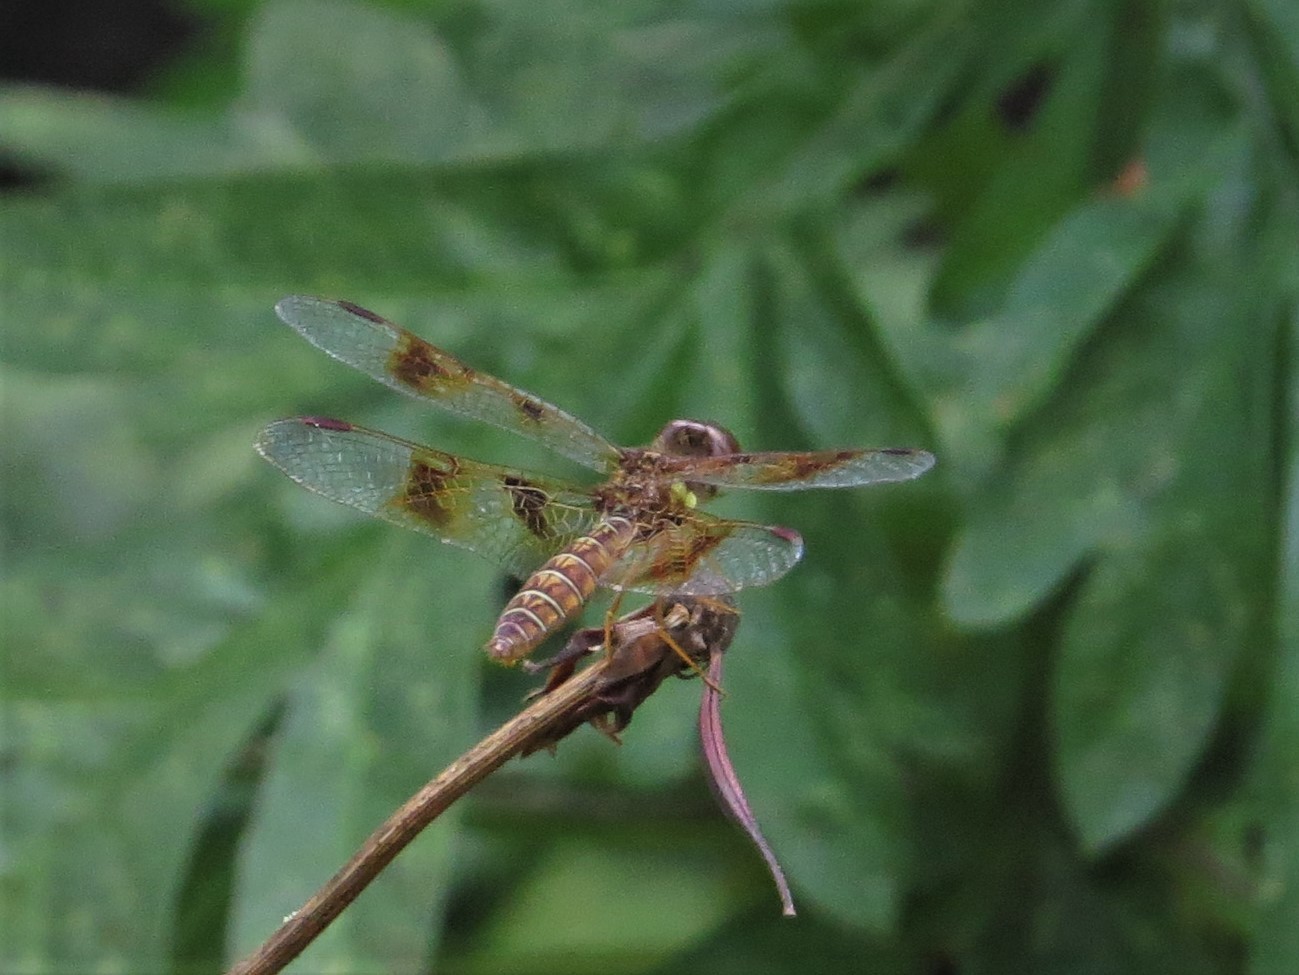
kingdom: Animalia
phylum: Arthropoda
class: Insecta
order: Odonata
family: Libellulidae
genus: Perithemis
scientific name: Perithemis tenera
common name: Eastern amberwing
